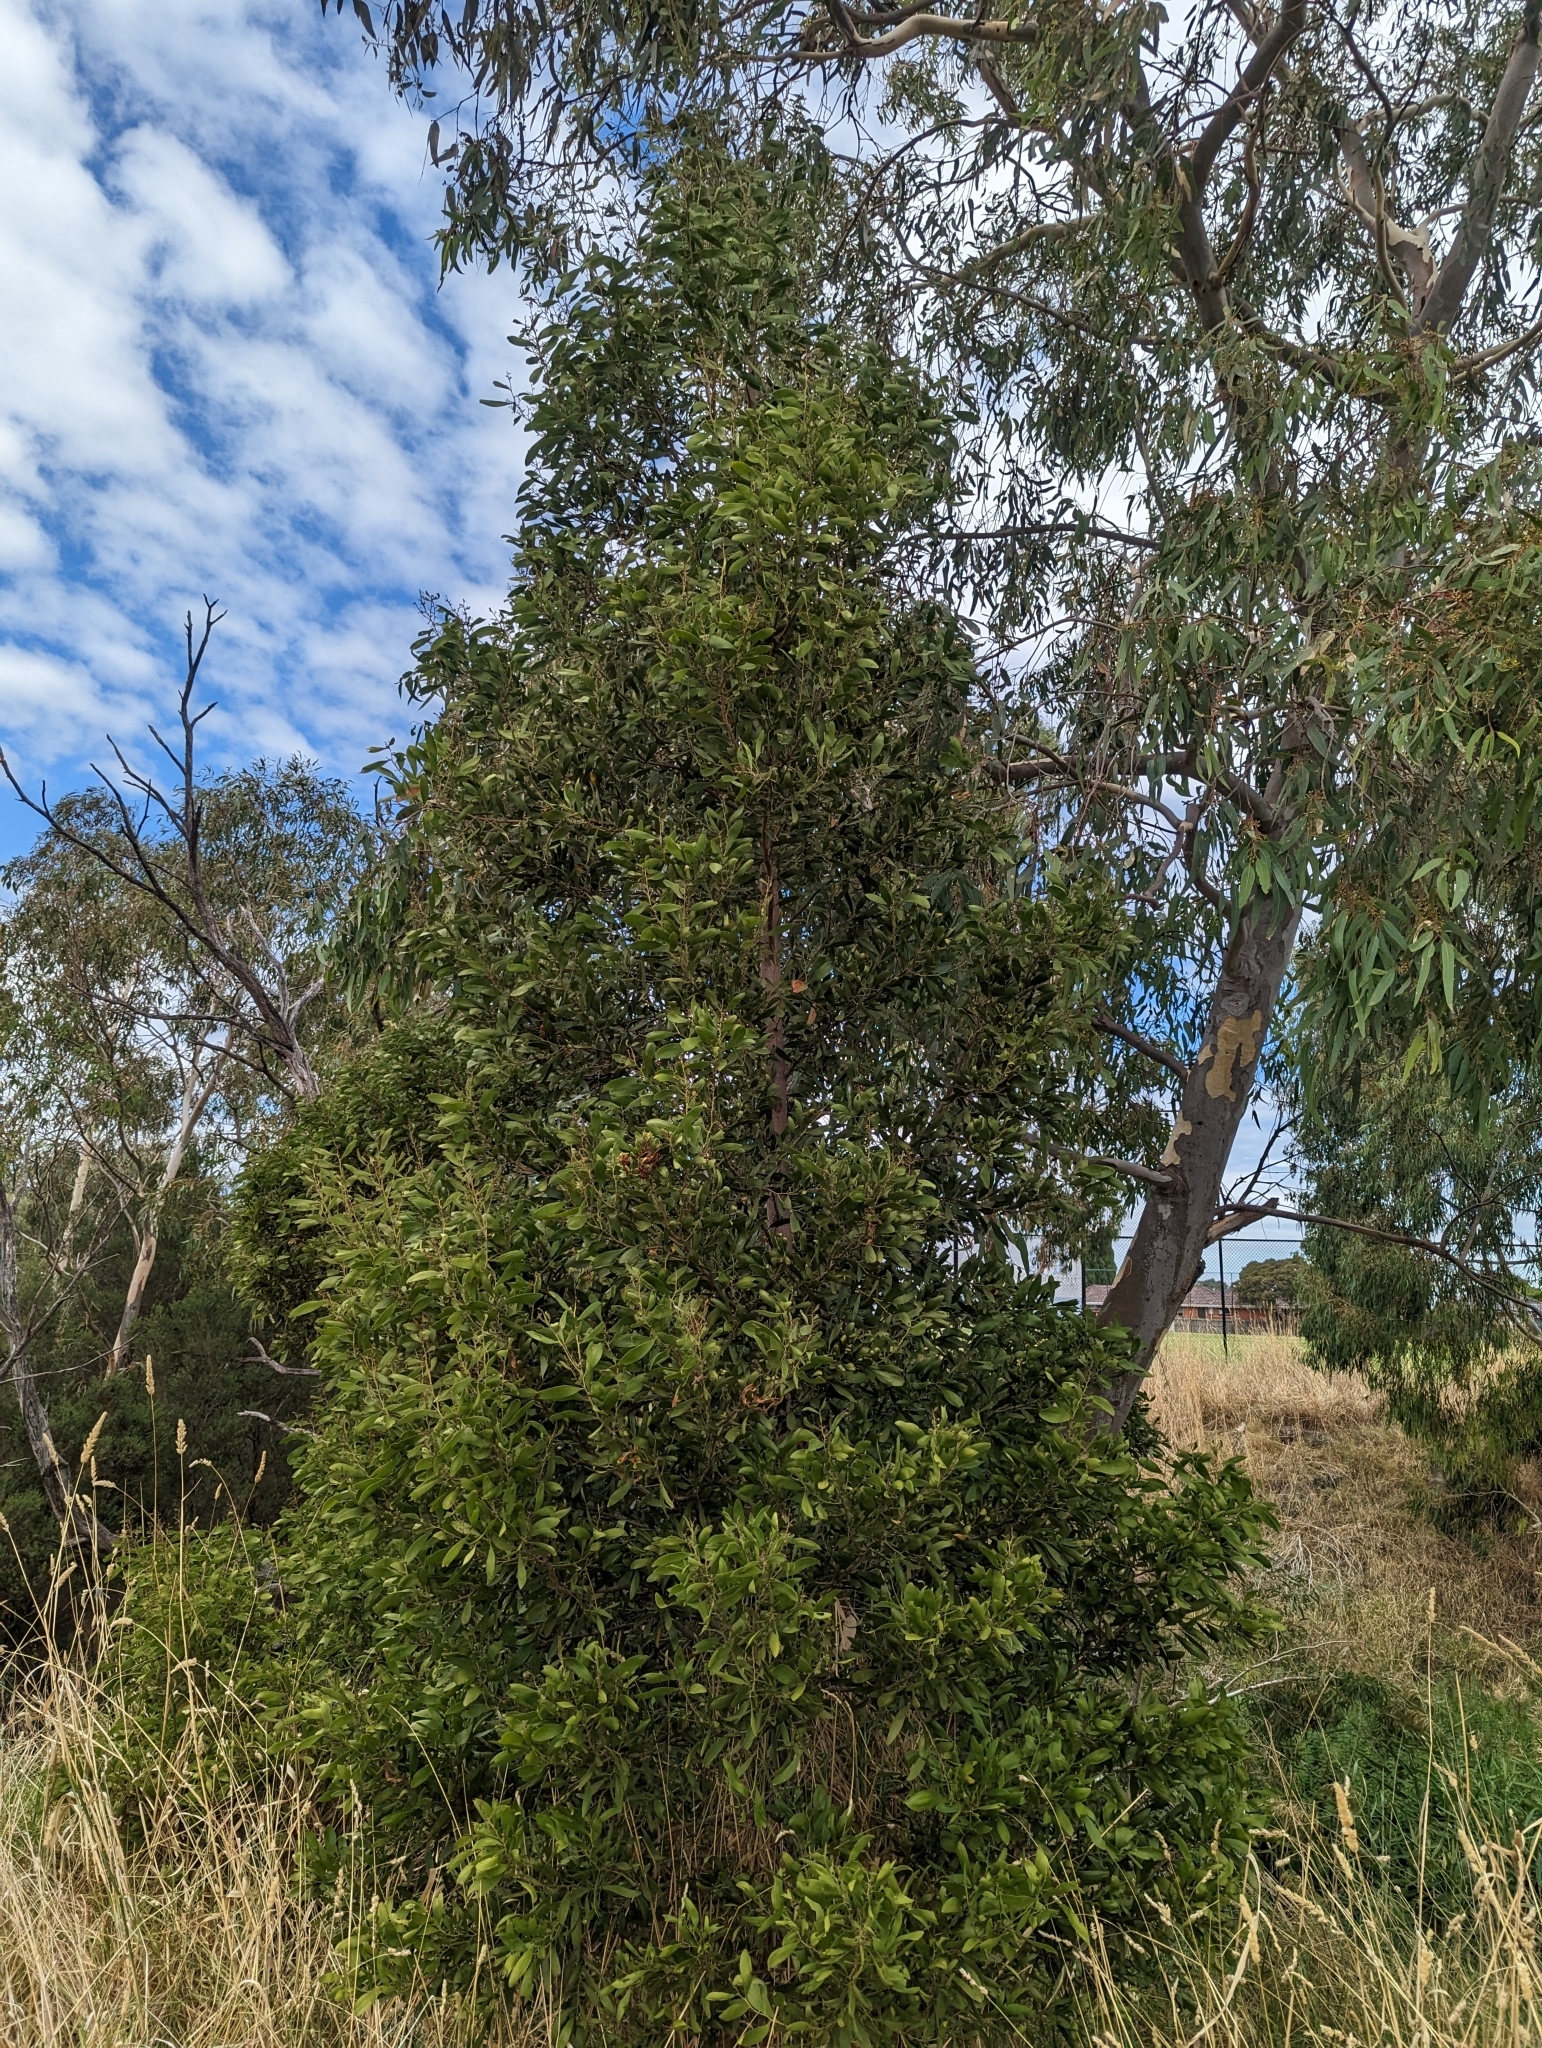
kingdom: Plantae
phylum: Tracheophyta
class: Magnoliopsida
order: Fabales
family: Fabaceae
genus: Acacia
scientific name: Acacia melanoxylon
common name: Blackwood
